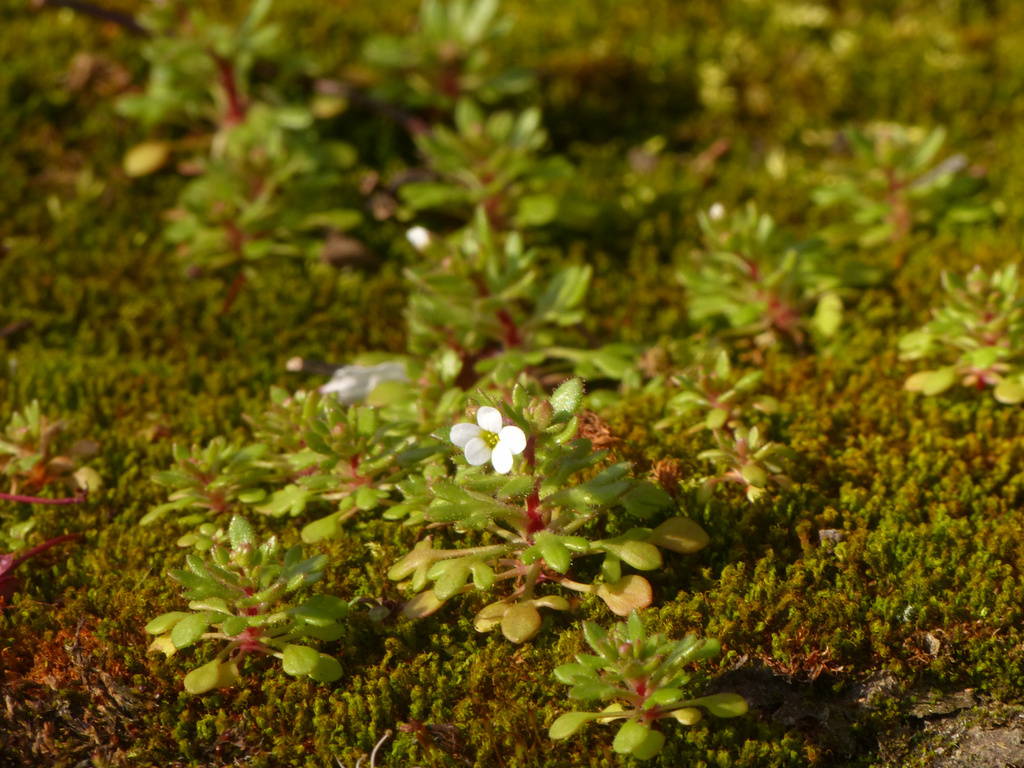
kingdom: Plantae
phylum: Tracheophyta
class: Magnoliopsida
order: Saxifragales
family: Saxifragaceae
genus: Saxifraga
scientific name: Saxifraga tridactylites
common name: Rue-leaved saxifrage
